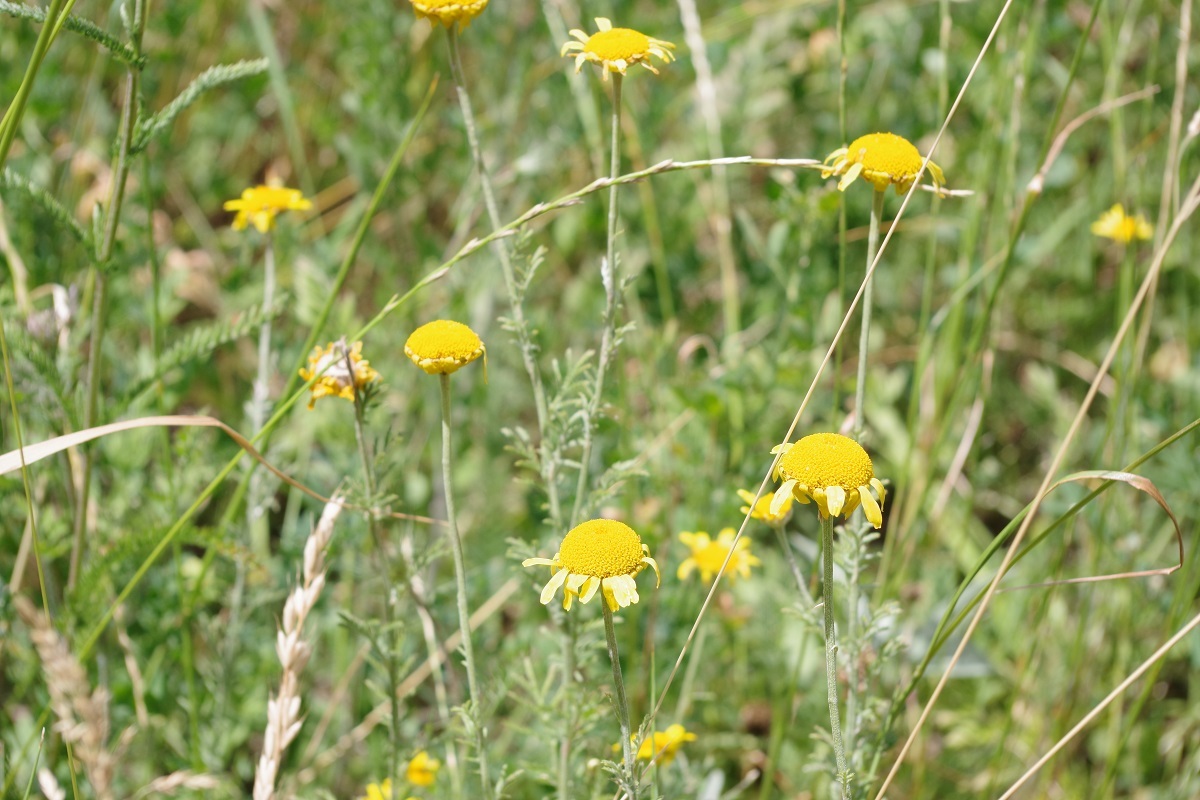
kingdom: Plantae
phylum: Tracheophyta
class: Magnoliopsida
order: Asterales
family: Asteraceae
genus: Cota
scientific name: Cota tinctoria
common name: Golden chamomile
